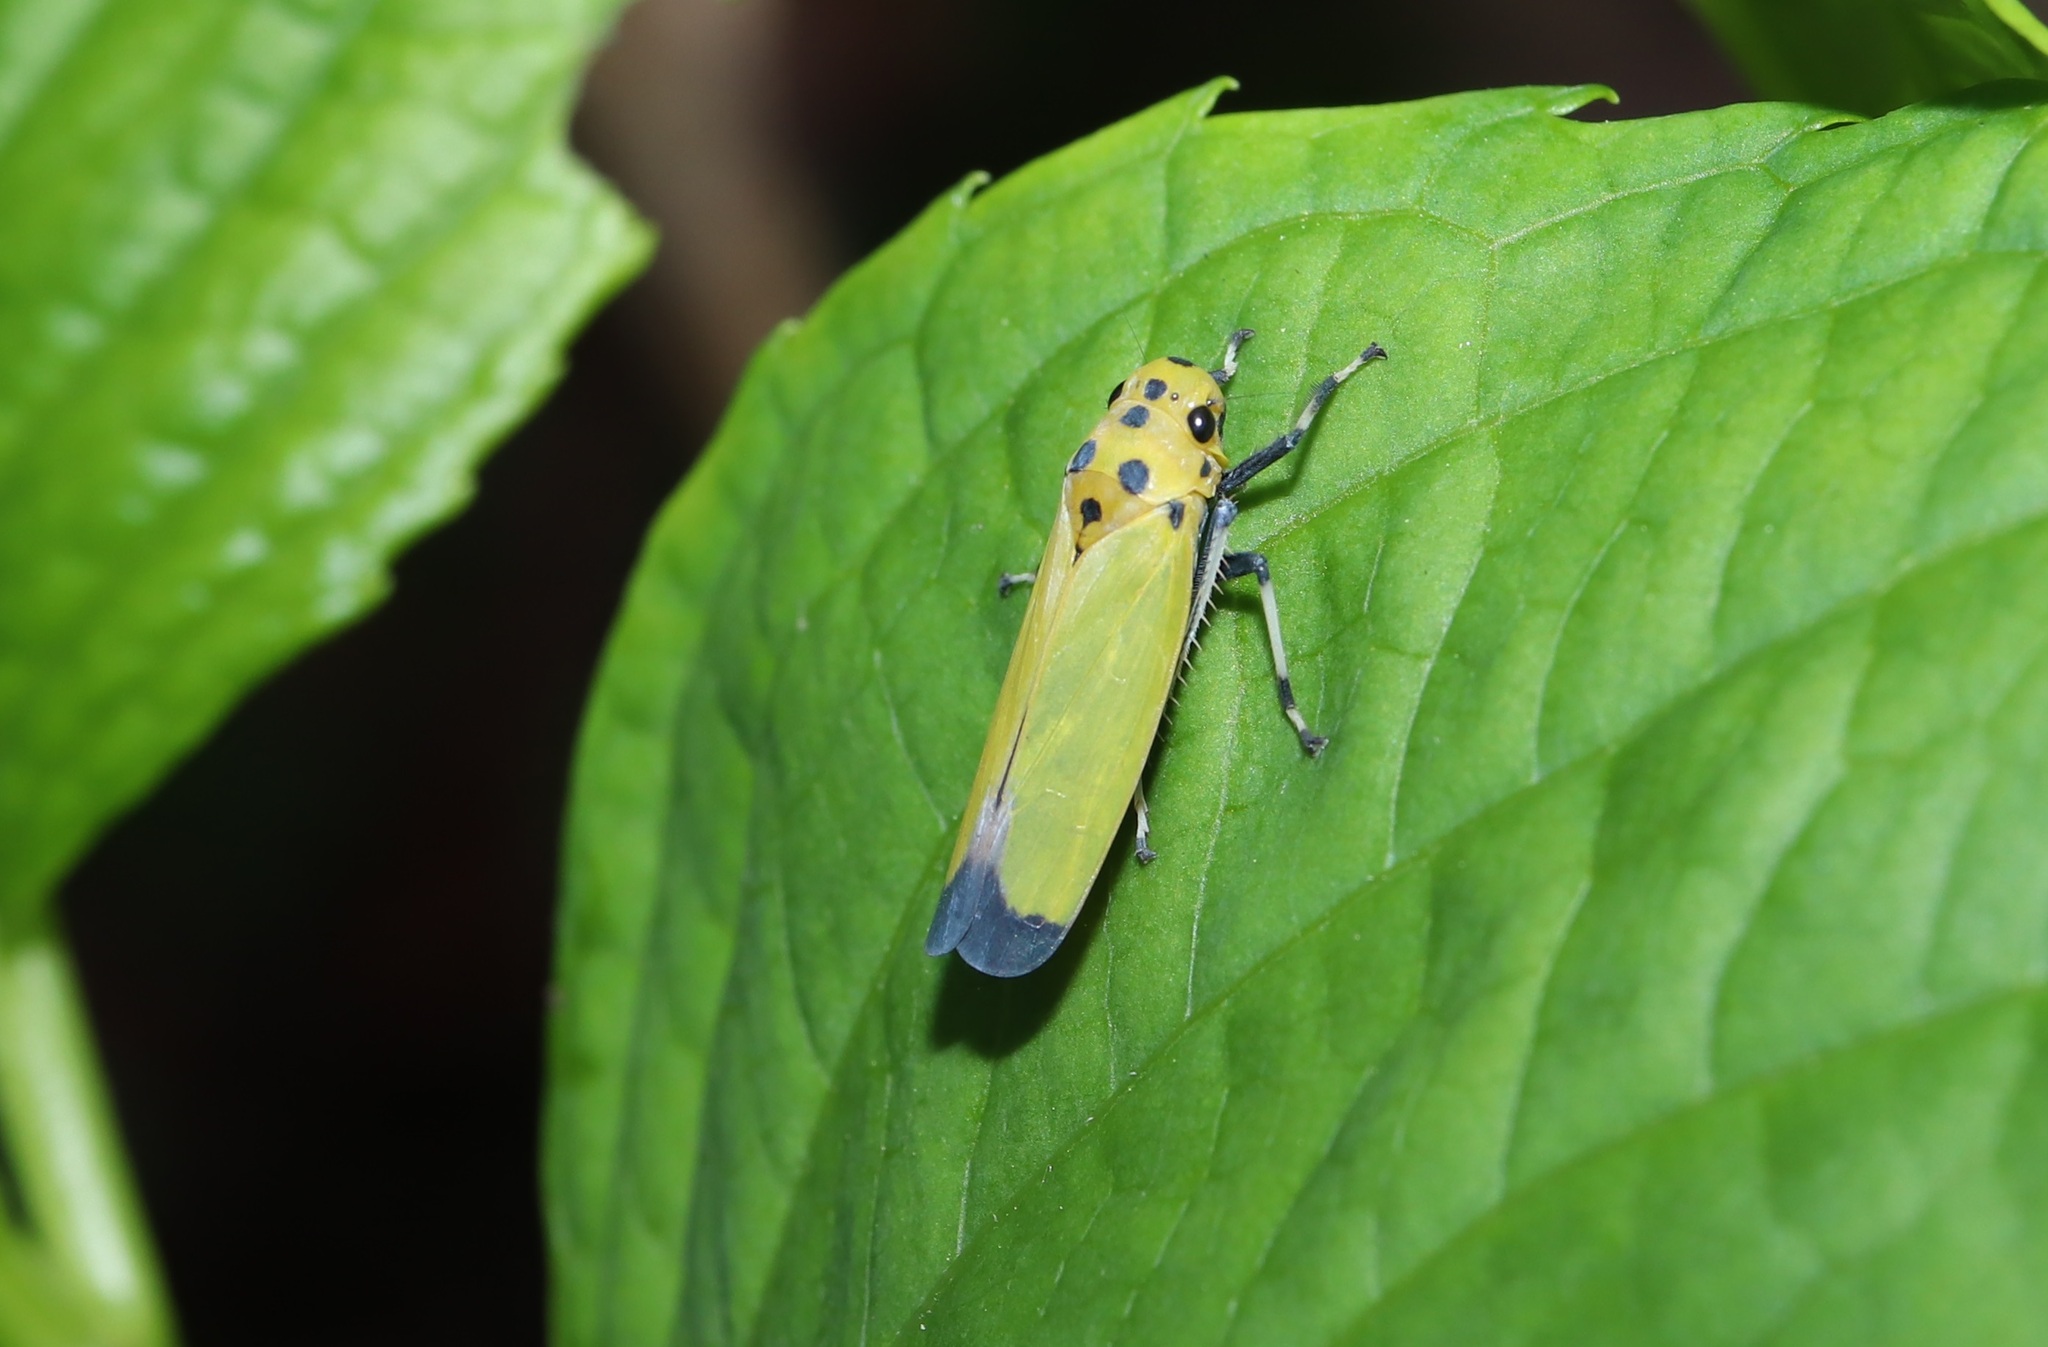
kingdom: Animalia
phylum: Arthropoda
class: Insecta
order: Hemiptera
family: Cicadellidae
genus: Bothrogonia
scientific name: Bothrogonia ferruginea
